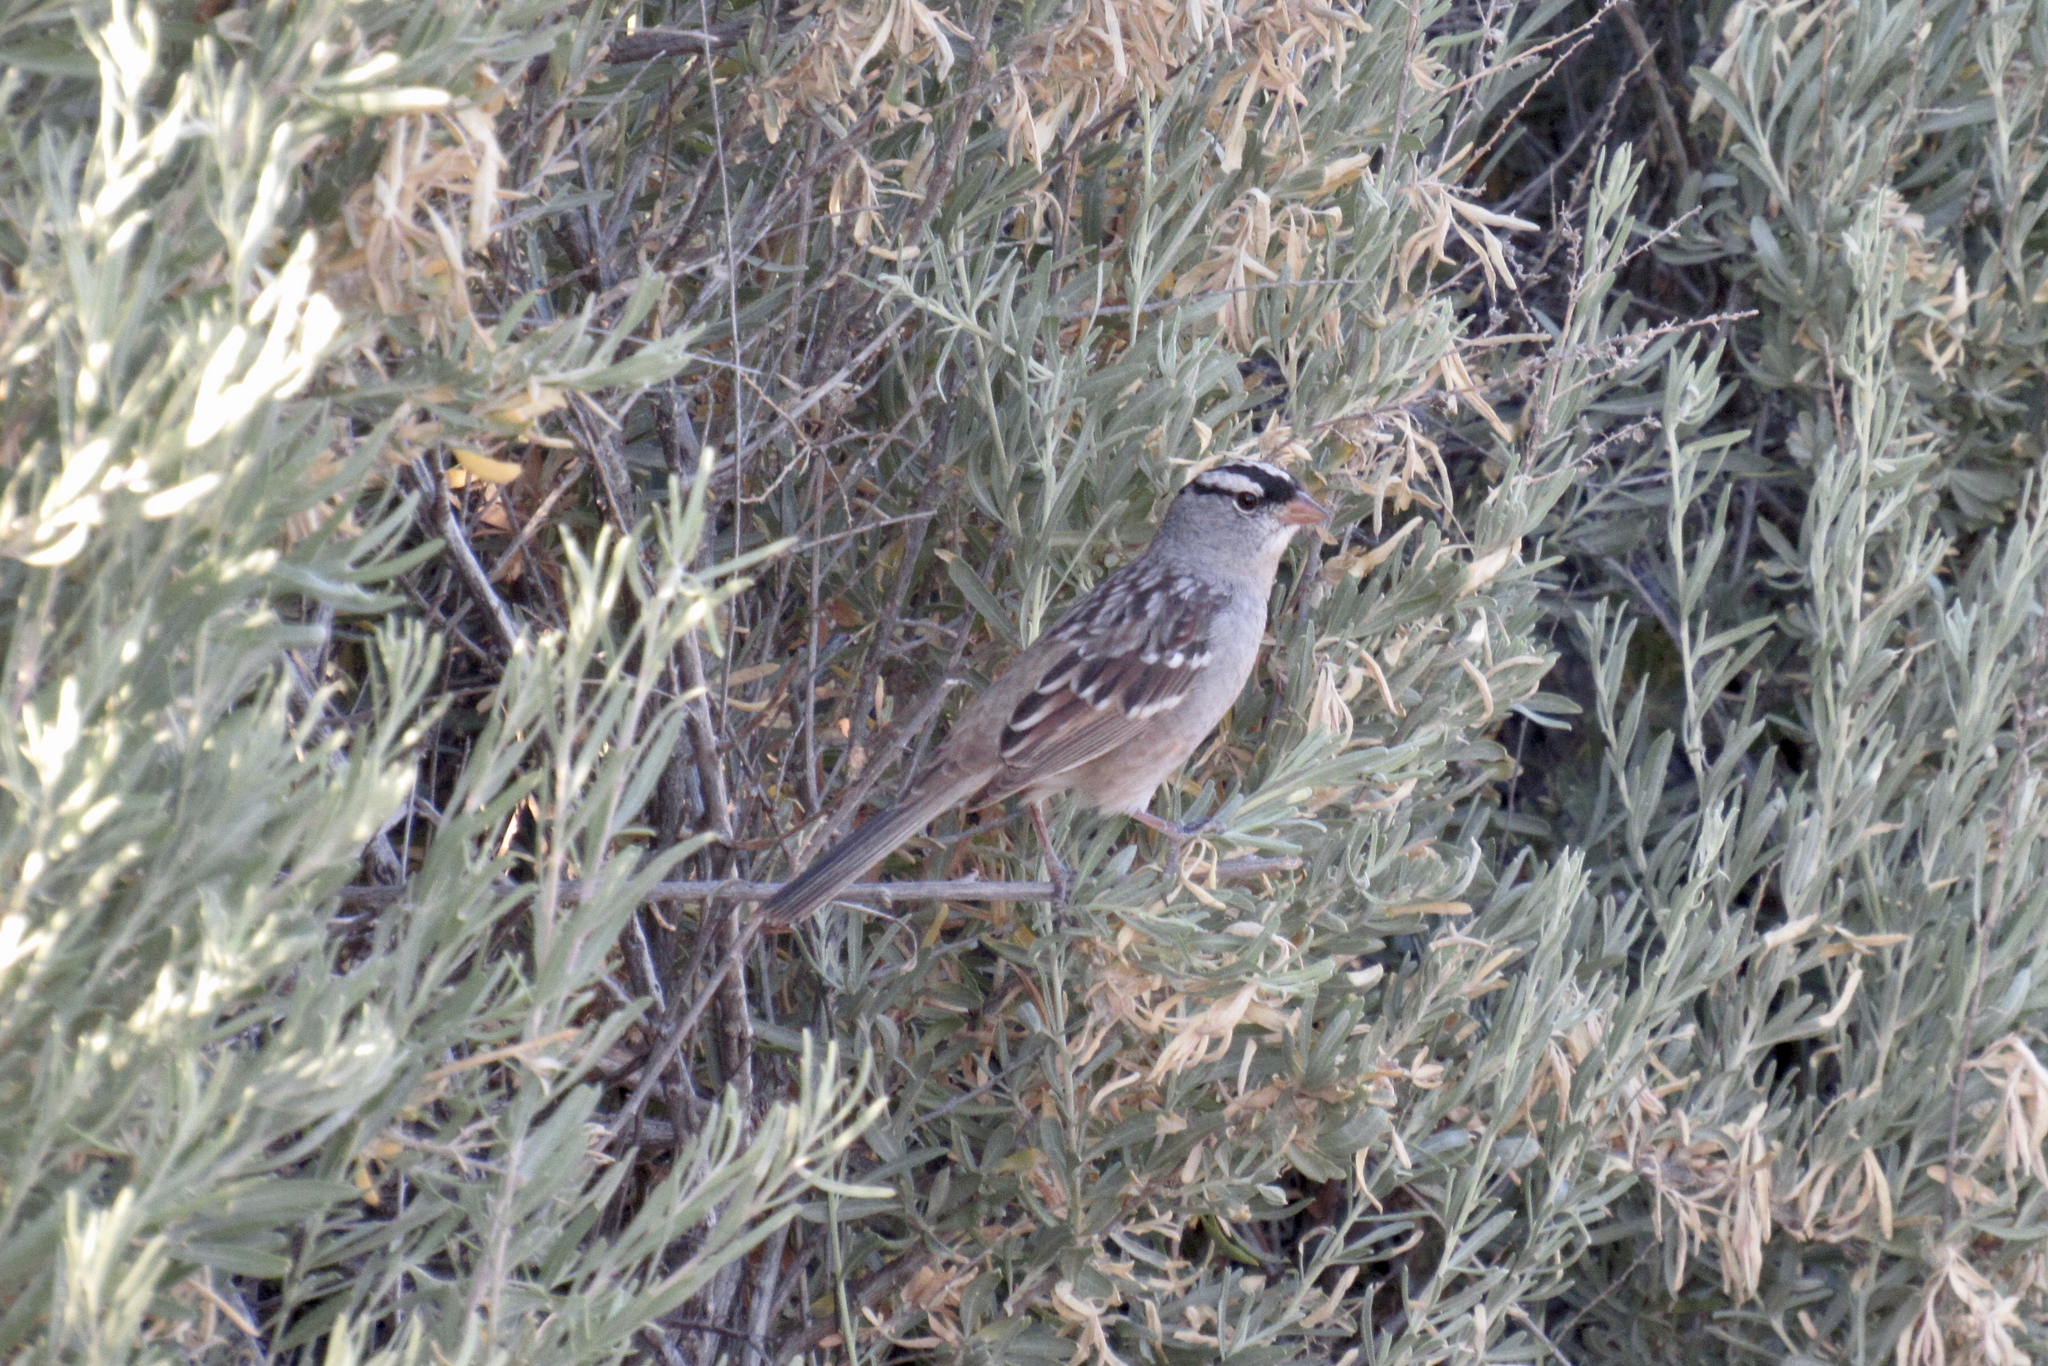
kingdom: Animalia
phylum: Chordata
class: Aves
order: Passeriformes
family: Passerellidae
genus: Zonotrichia
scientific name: Zonotrichia leucophrys
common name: White-crowned sparrow
